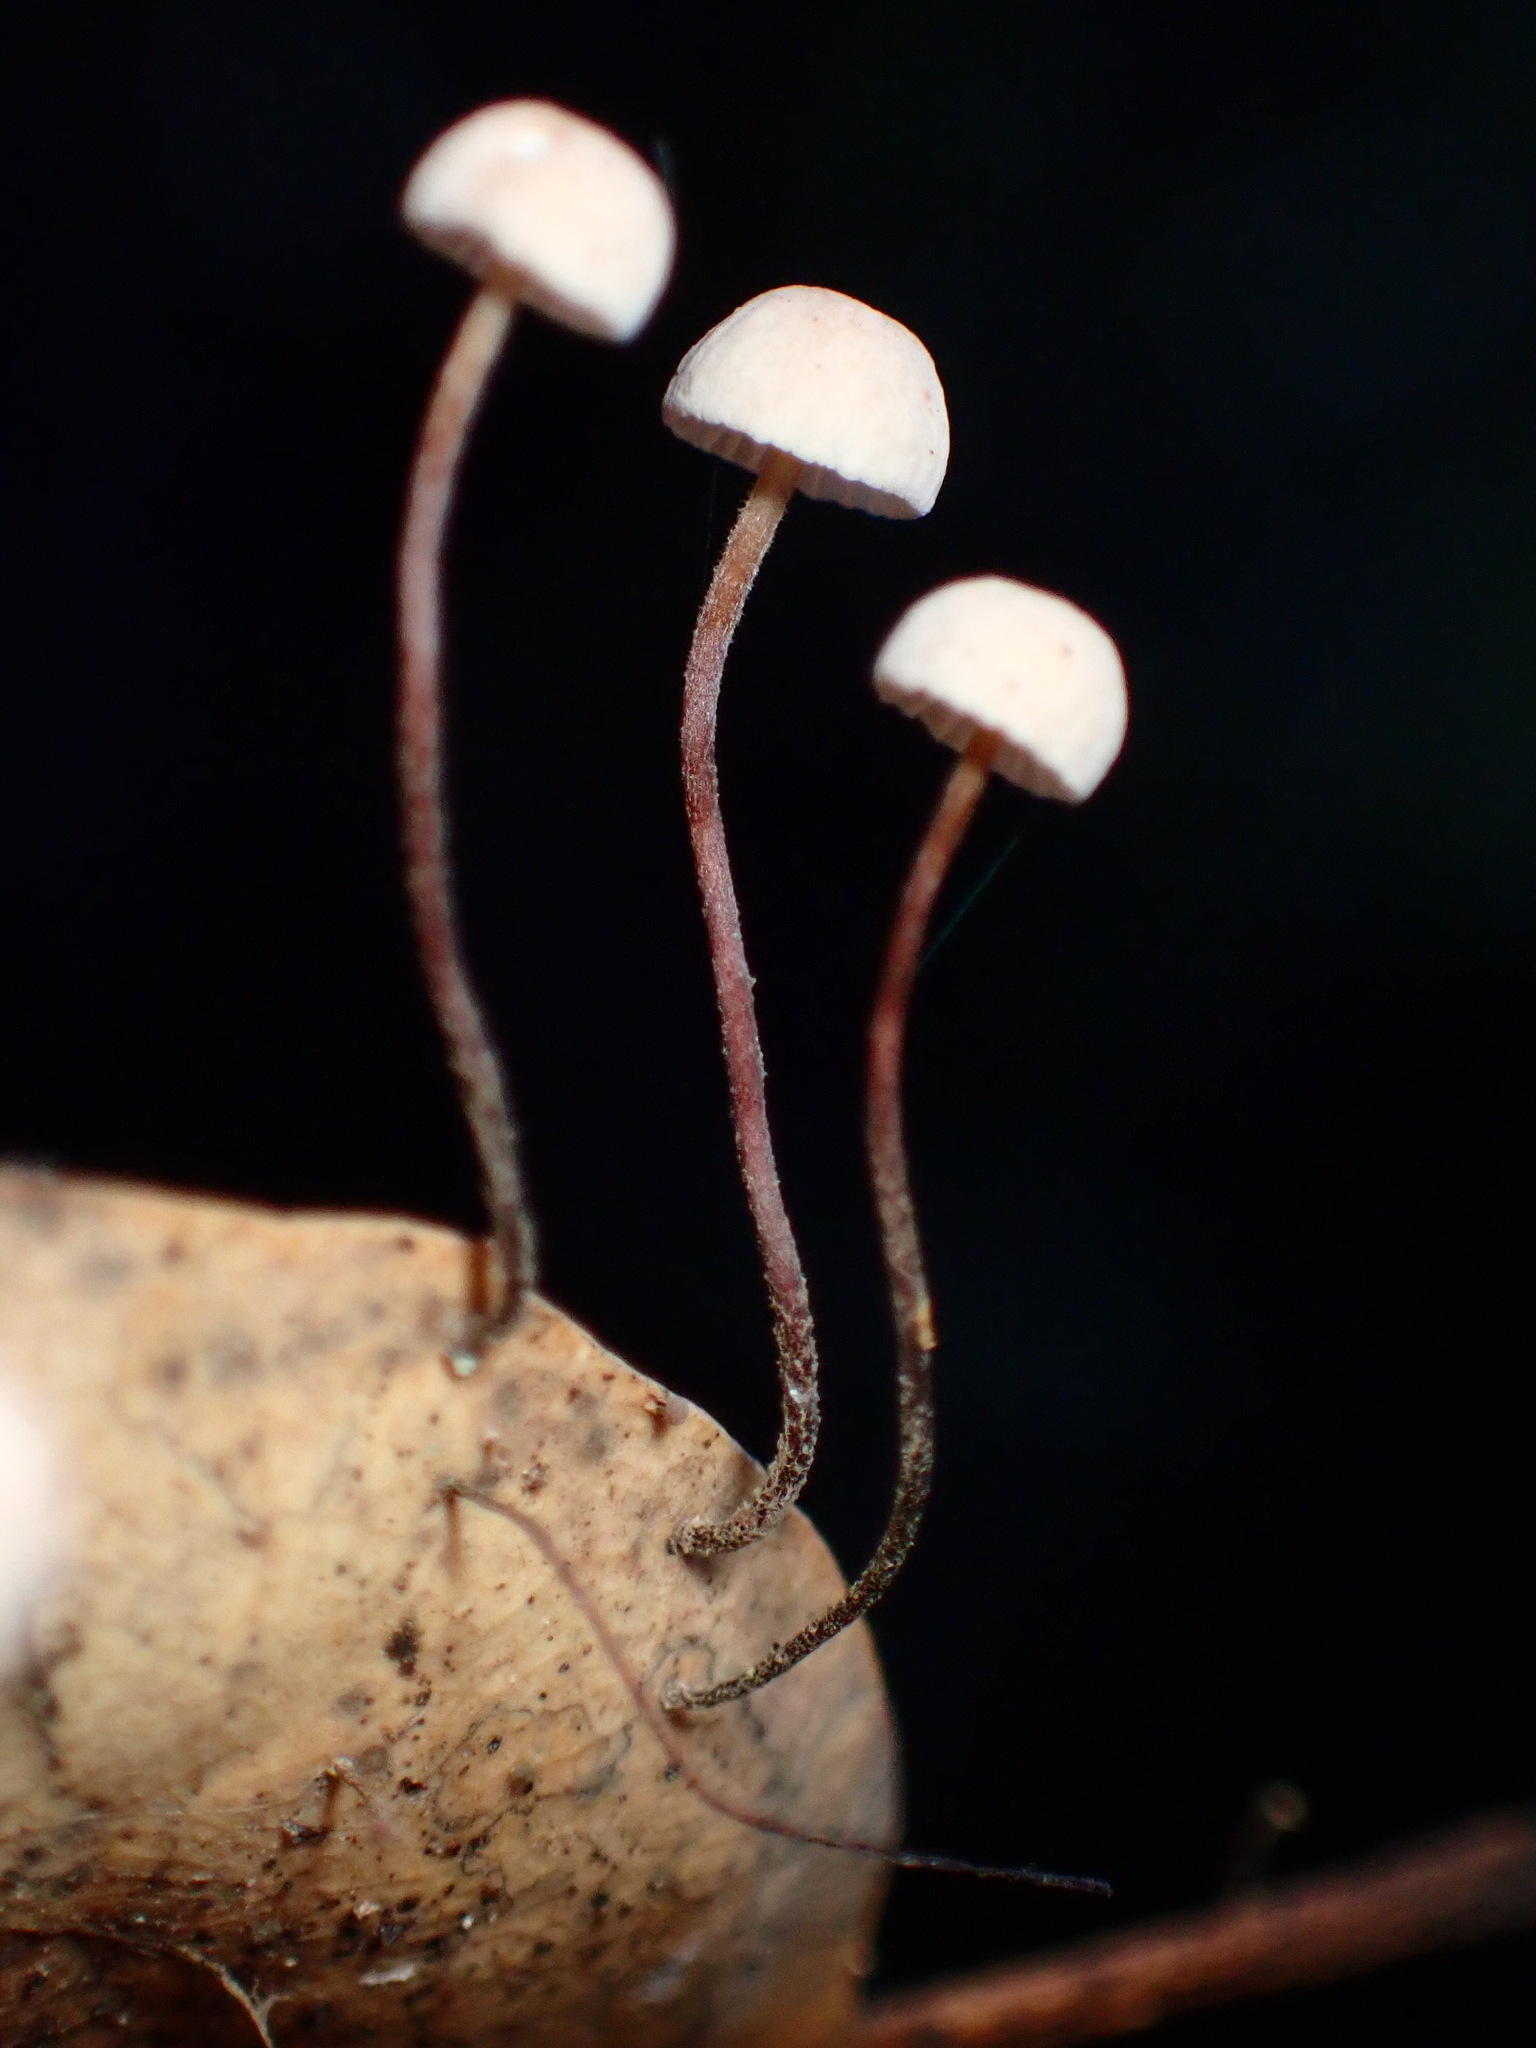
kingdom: Fungi
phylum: Basidiomycota
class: Agaricomycetes
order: Agaricales
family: Omphalotaceae
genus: Collybiopsis
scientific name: Collybiopsis quercophila
